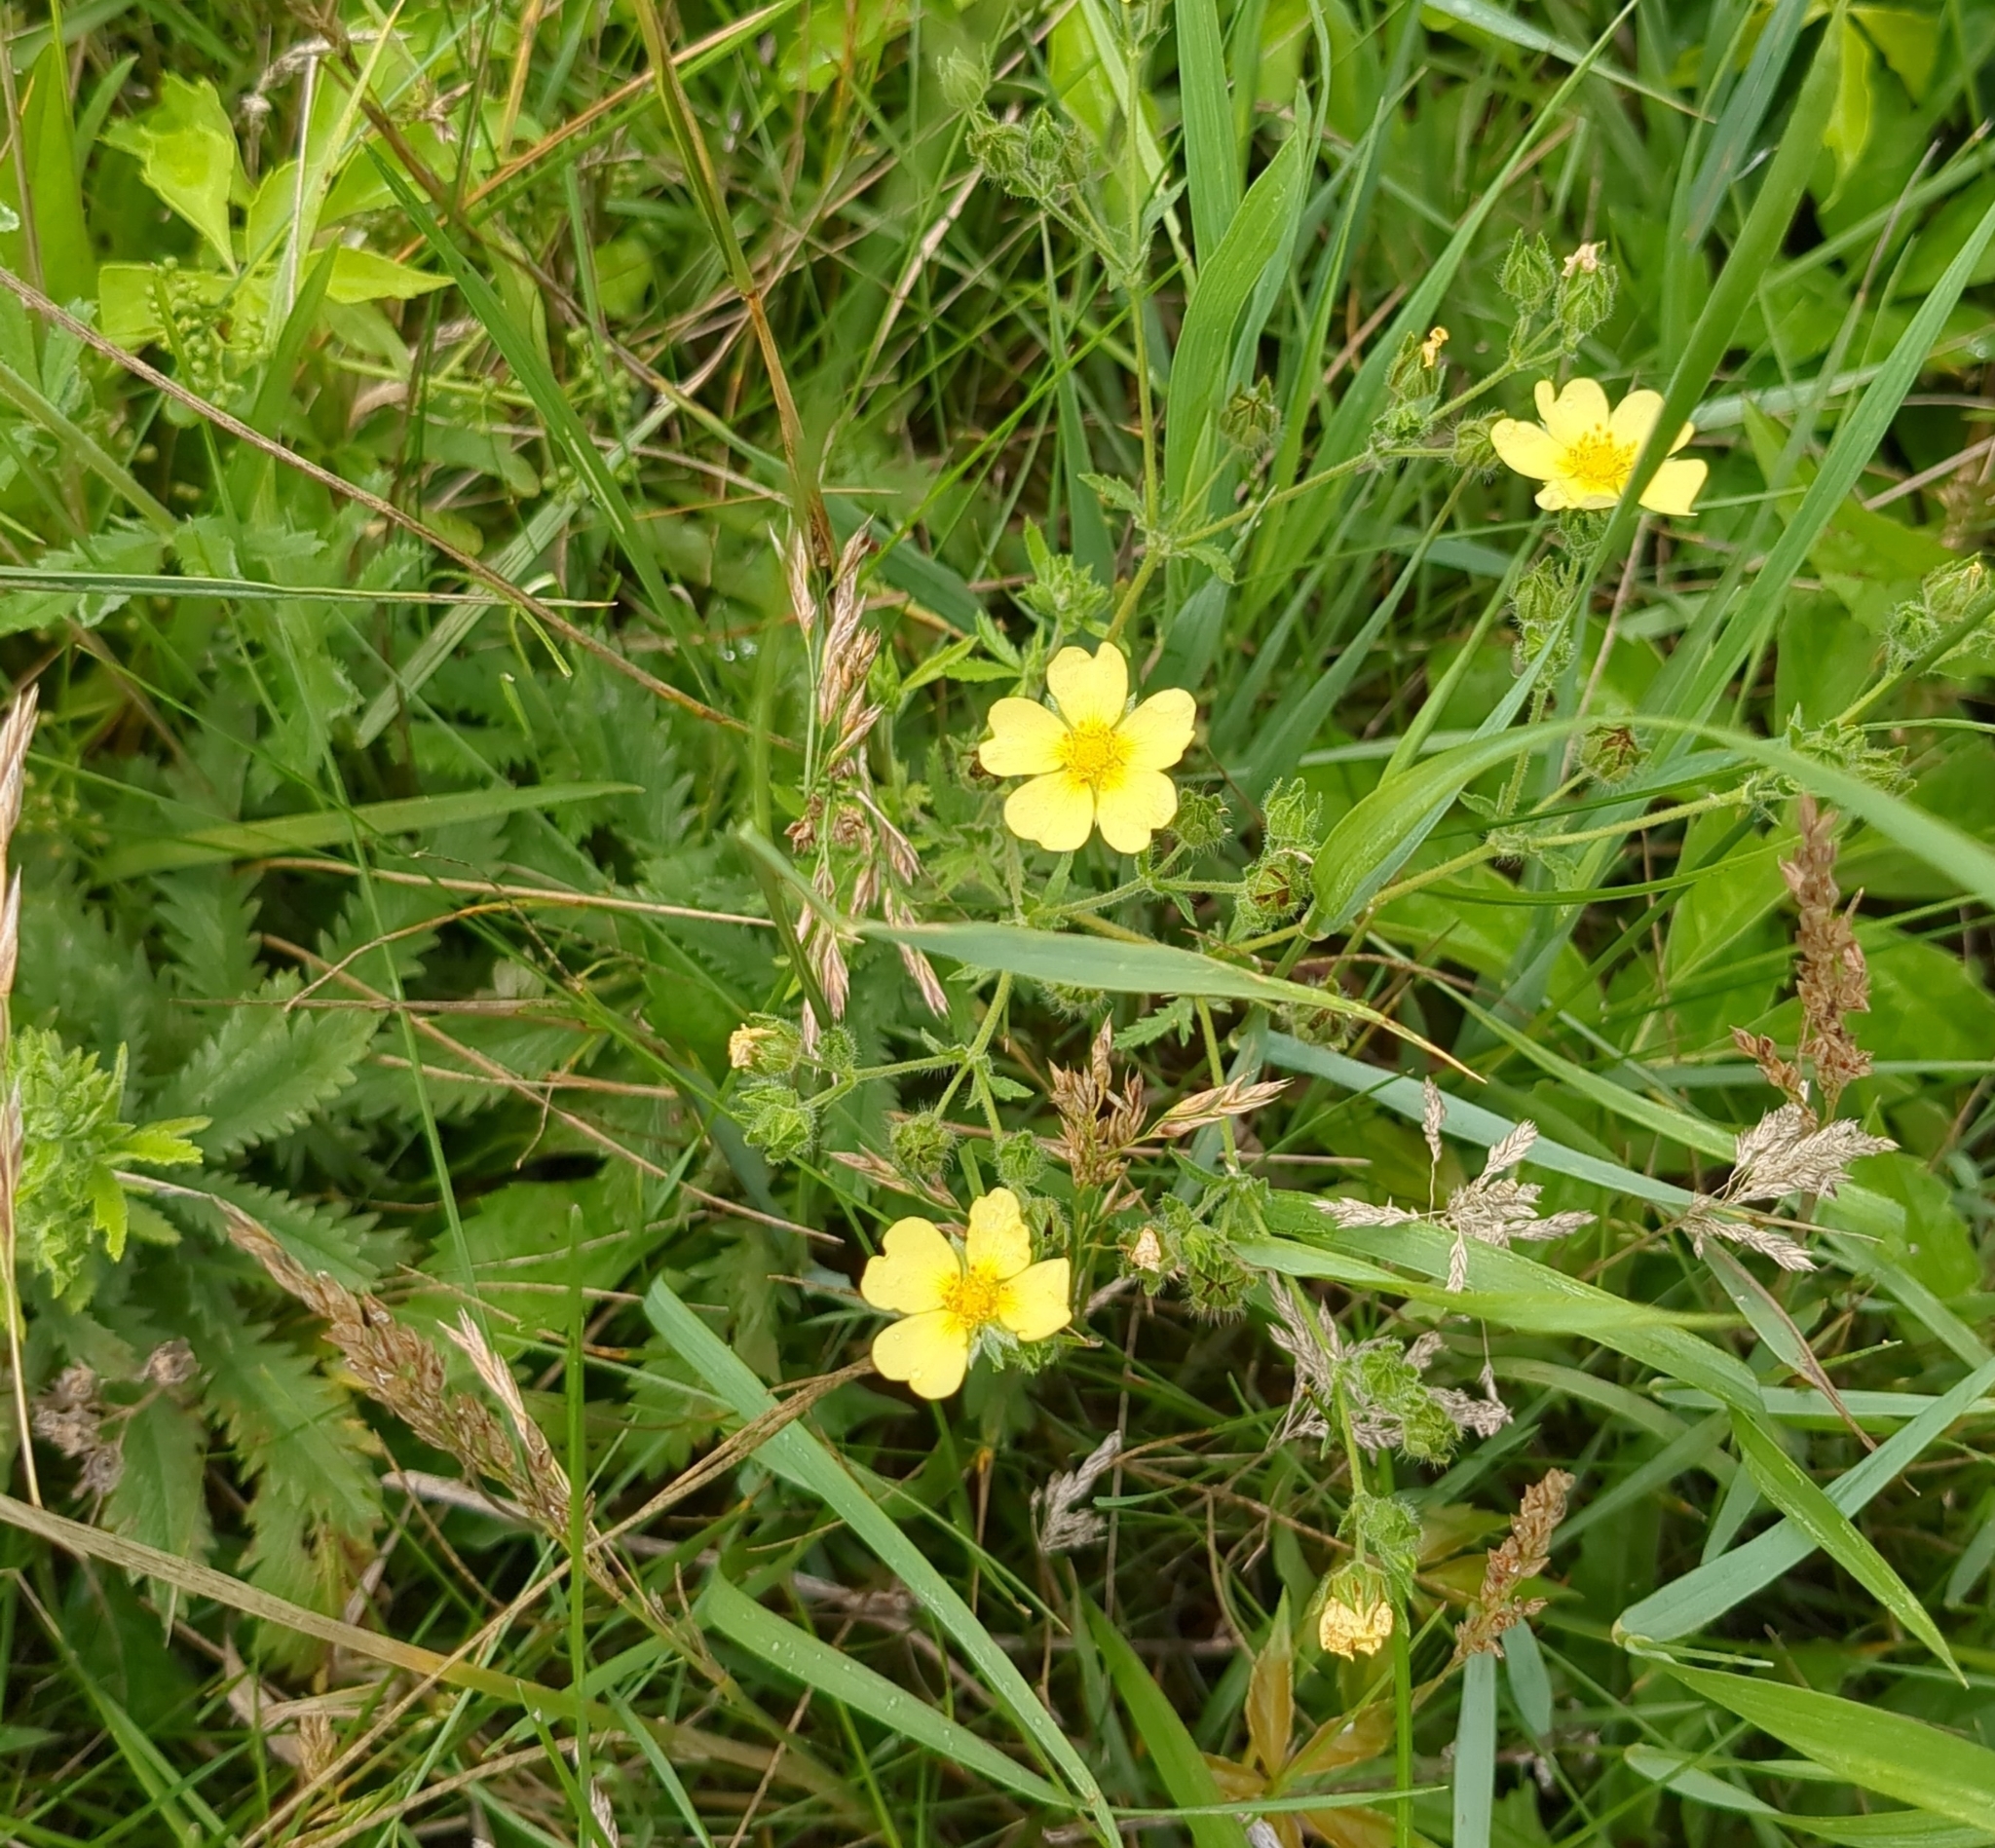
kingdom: Plantae
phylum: Tracheophyta
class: Magnoliopsida
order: Rosales
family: Rosaceae
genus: Potentilla
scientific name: Potentilla recta
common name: Sulphur cinquefoil
